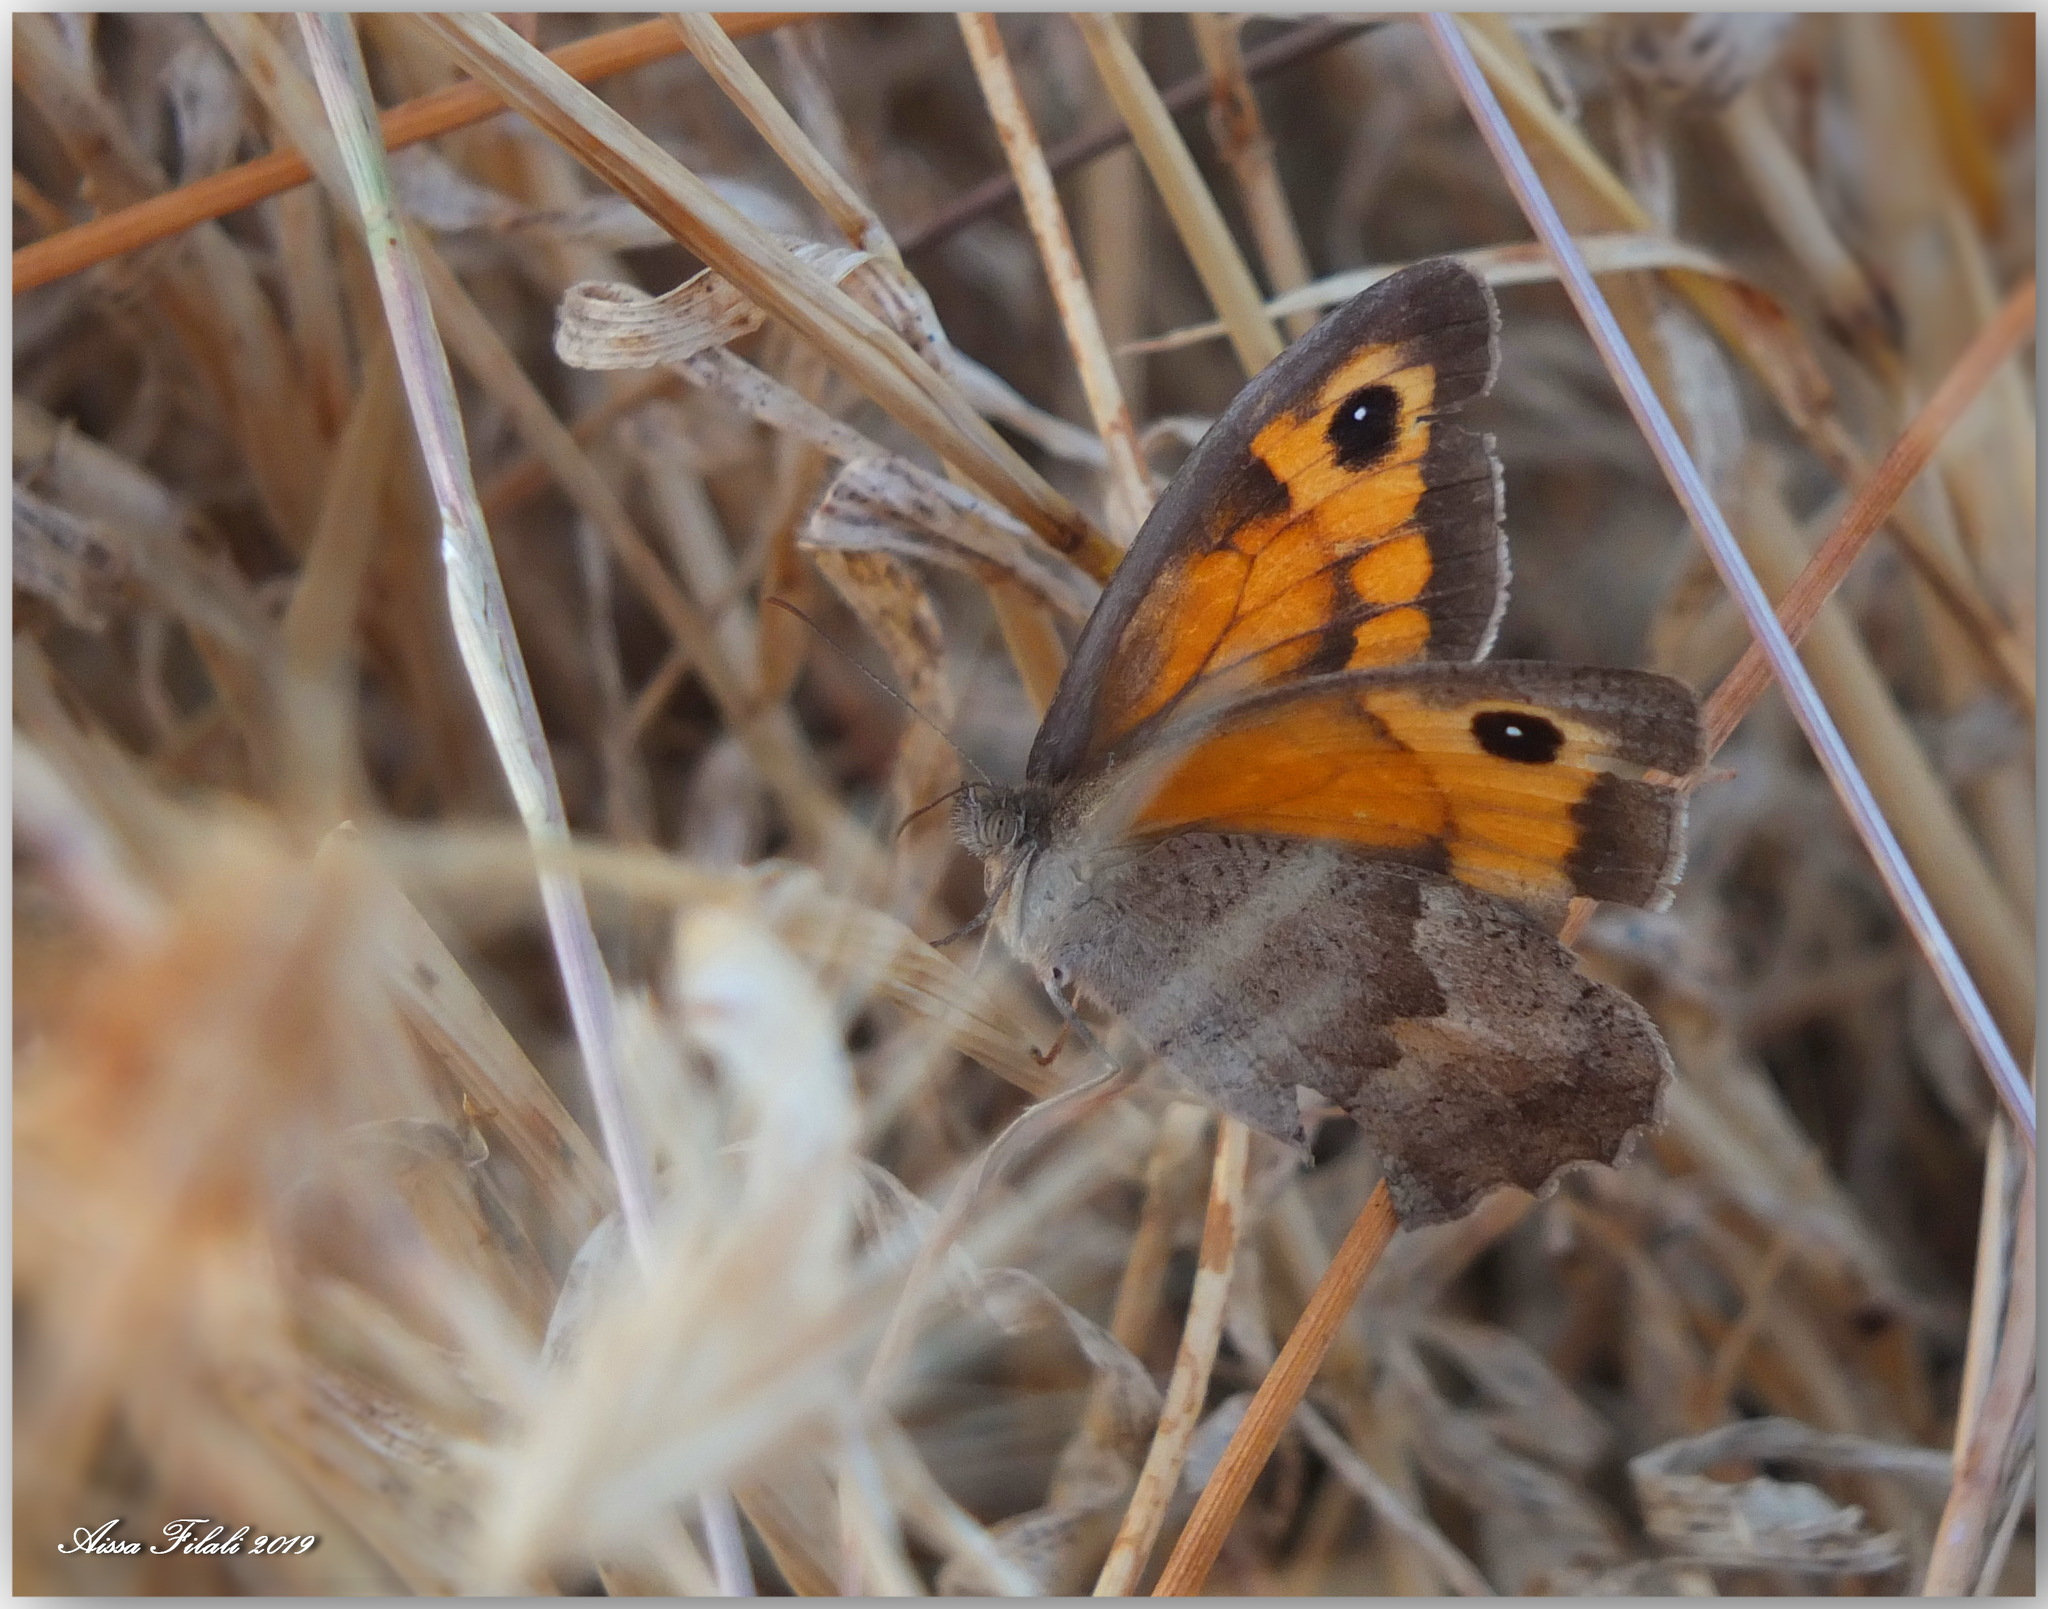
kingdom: Animalia
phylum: Arthropoda
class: Insecta
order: Lepidoptera
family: Nymphalidae
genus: Maniola
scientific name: Maniola jurtina
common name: Meadow brown
